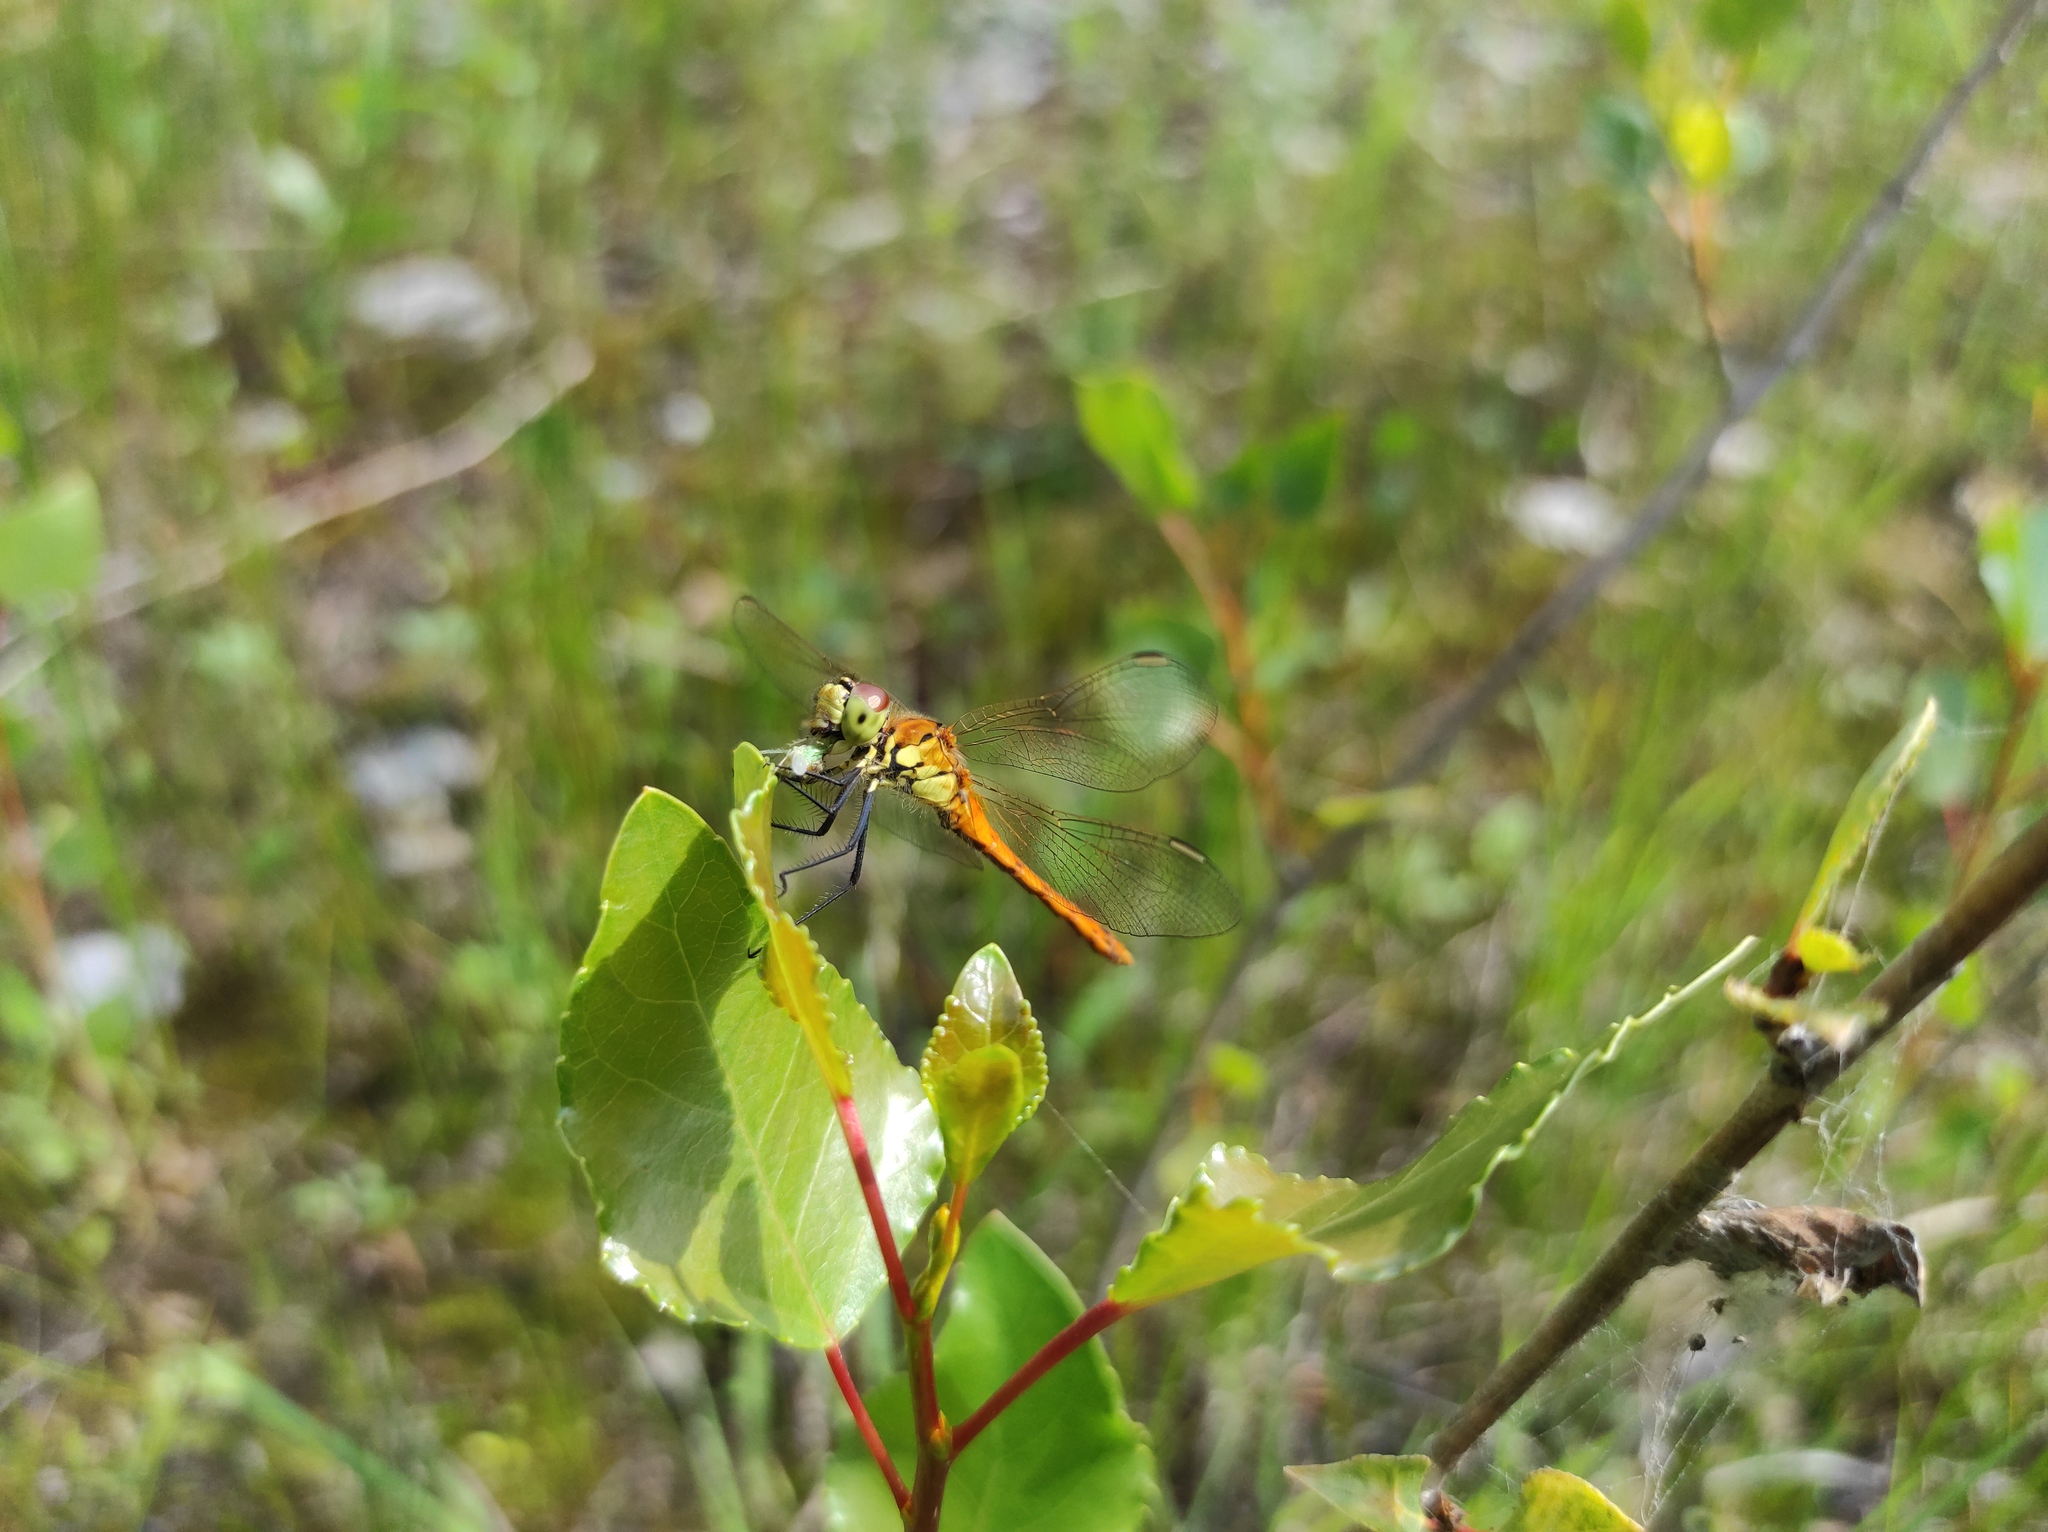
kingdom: Animalia
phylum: Arthropoda
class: Insecta
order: Odonata
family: Libellulidae
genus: Sympetrum
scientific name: Sympetrum depressiusculum
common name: Spotted darter
